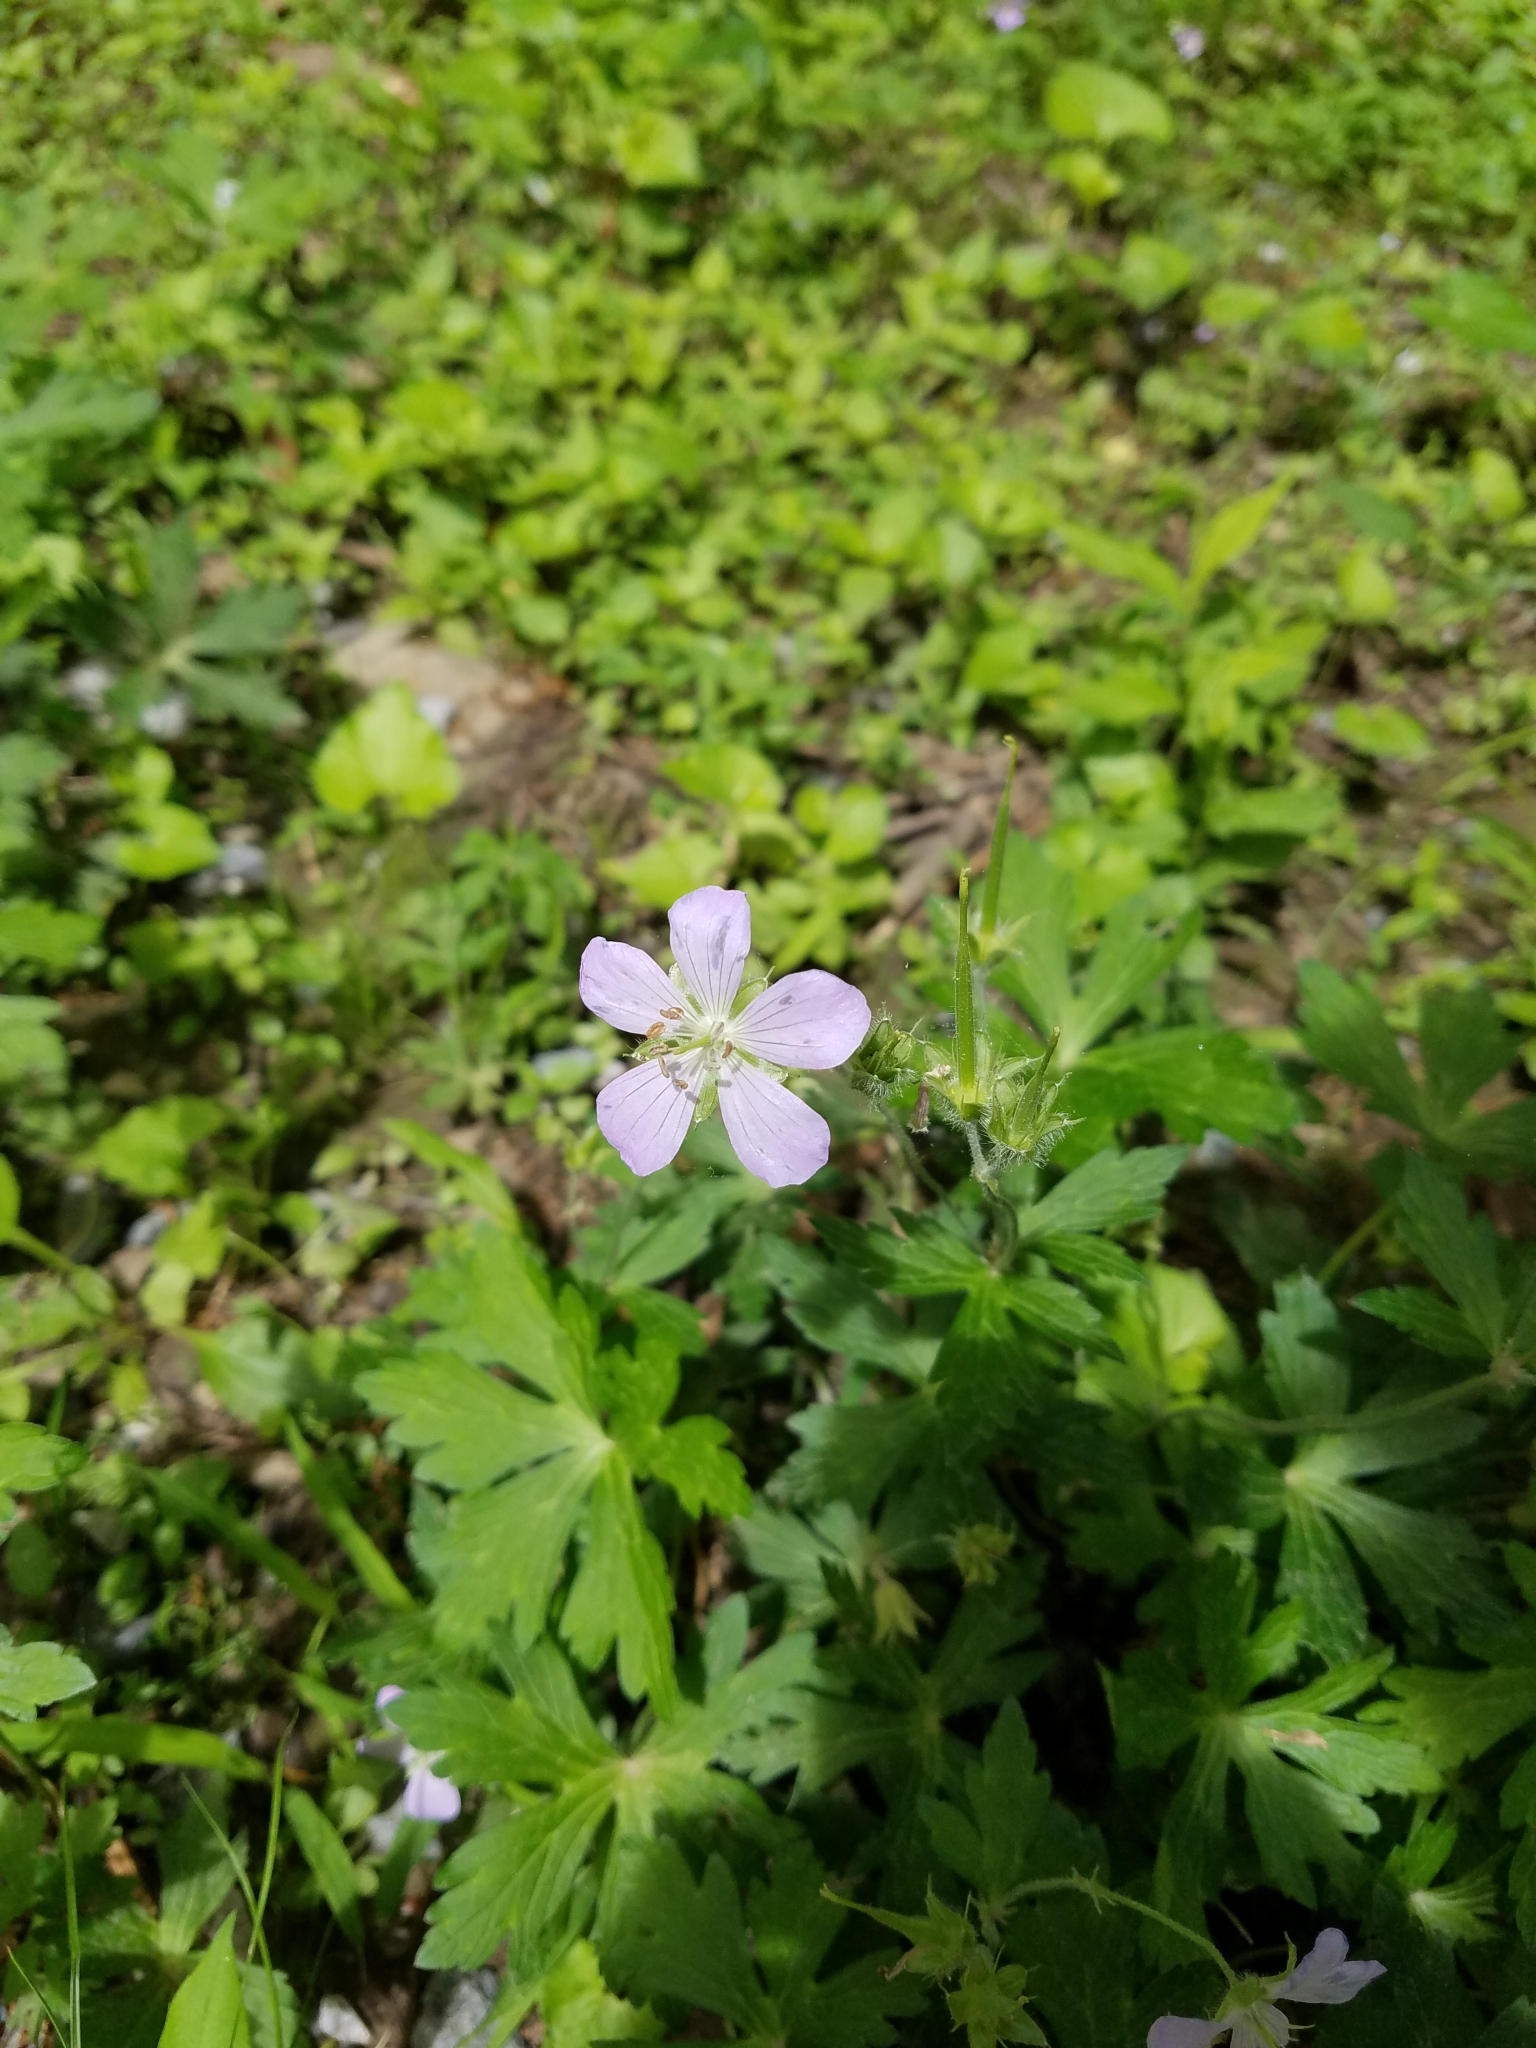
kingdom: Plantae
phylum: Tracheophyta
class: Magnoliopsida
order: Geraniales
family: Geraniaceae
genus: Geranium
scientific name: Geranium maculatum
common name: Spotted geranium
